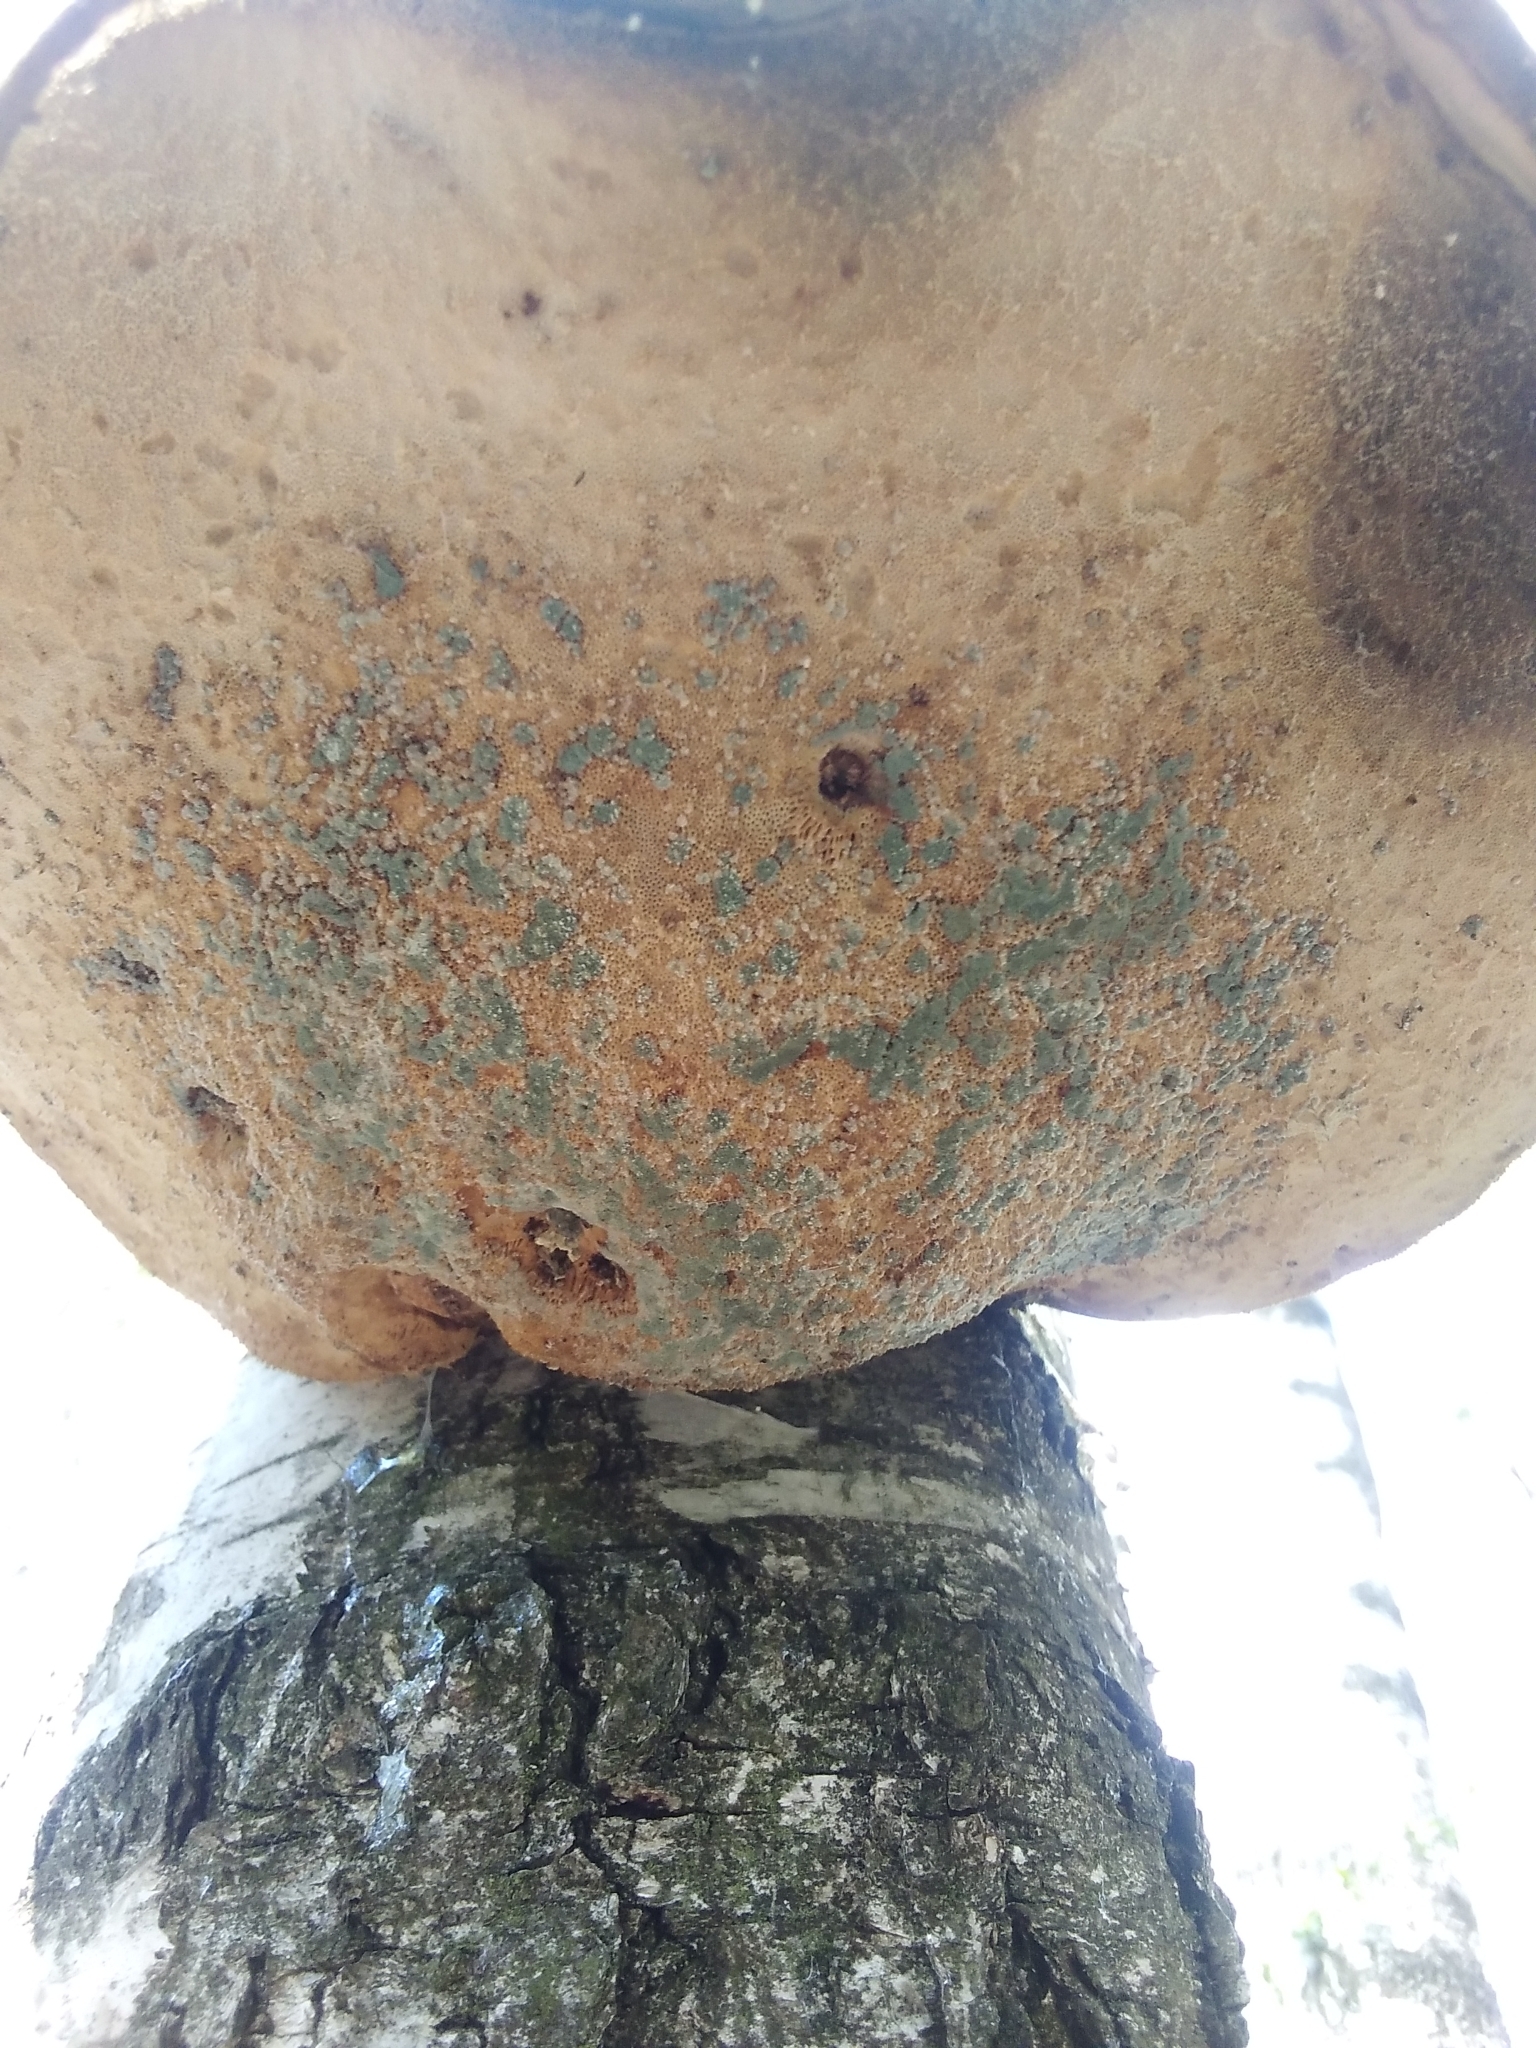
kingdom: Fungi
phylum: Basidiomycota
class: Agaricomycetes
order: Polyporales
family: Fomitopsidaceae
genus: Fomitopsis
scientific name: Fomitopsis betulina
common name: Birch polypore
